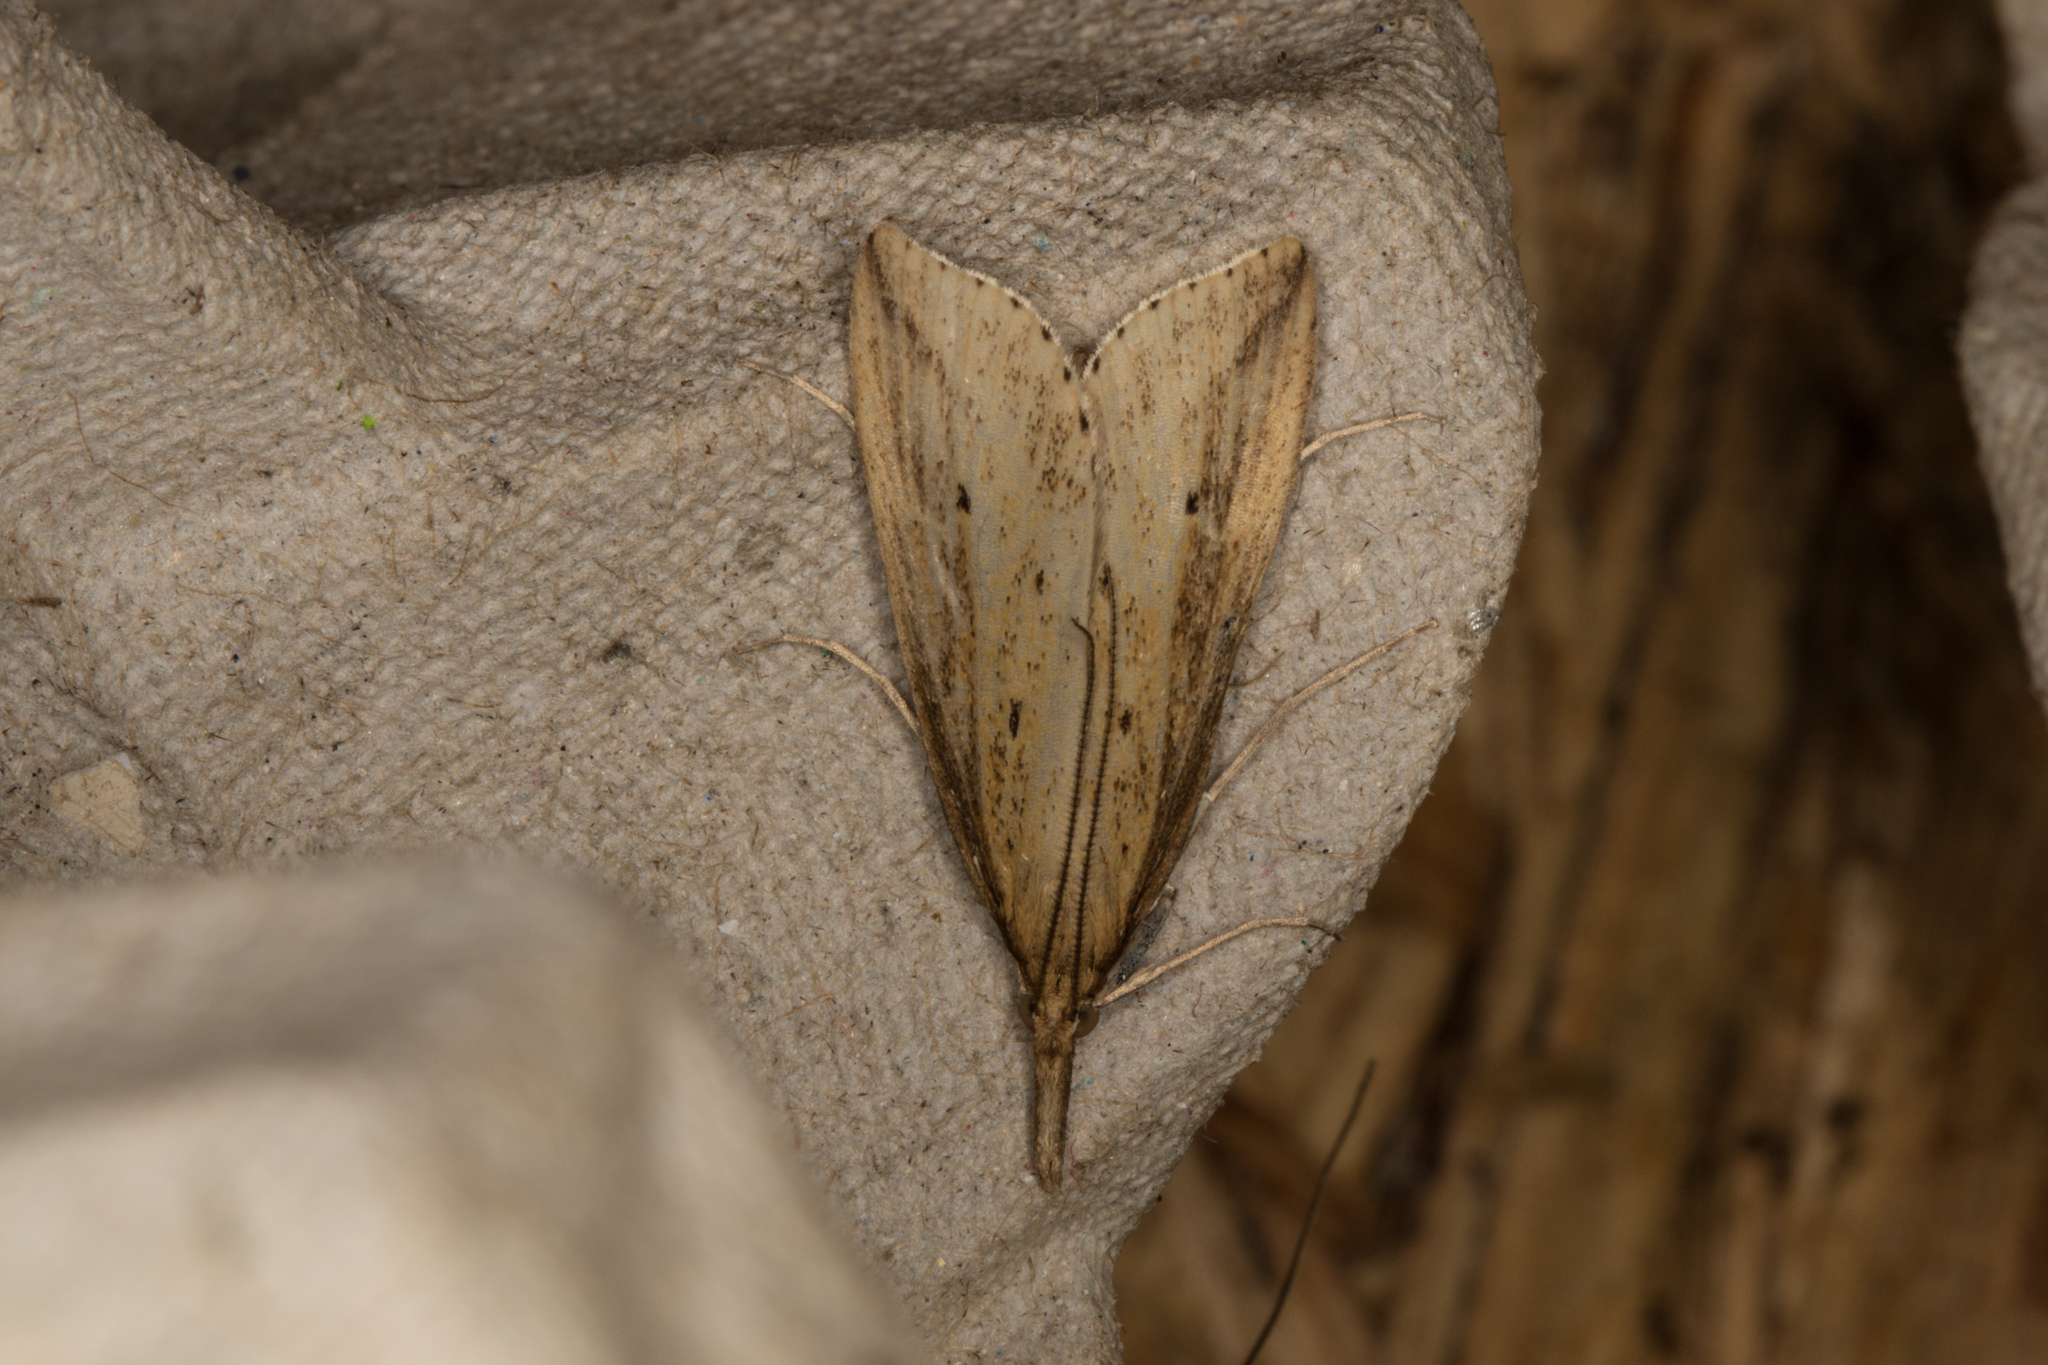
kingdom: Animalia
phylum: Arthropoda
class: Insecta
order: Lepidoptera
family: Crambidae
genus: Donacaula
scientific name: Donacaula forficella
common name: Pale water-veneer
